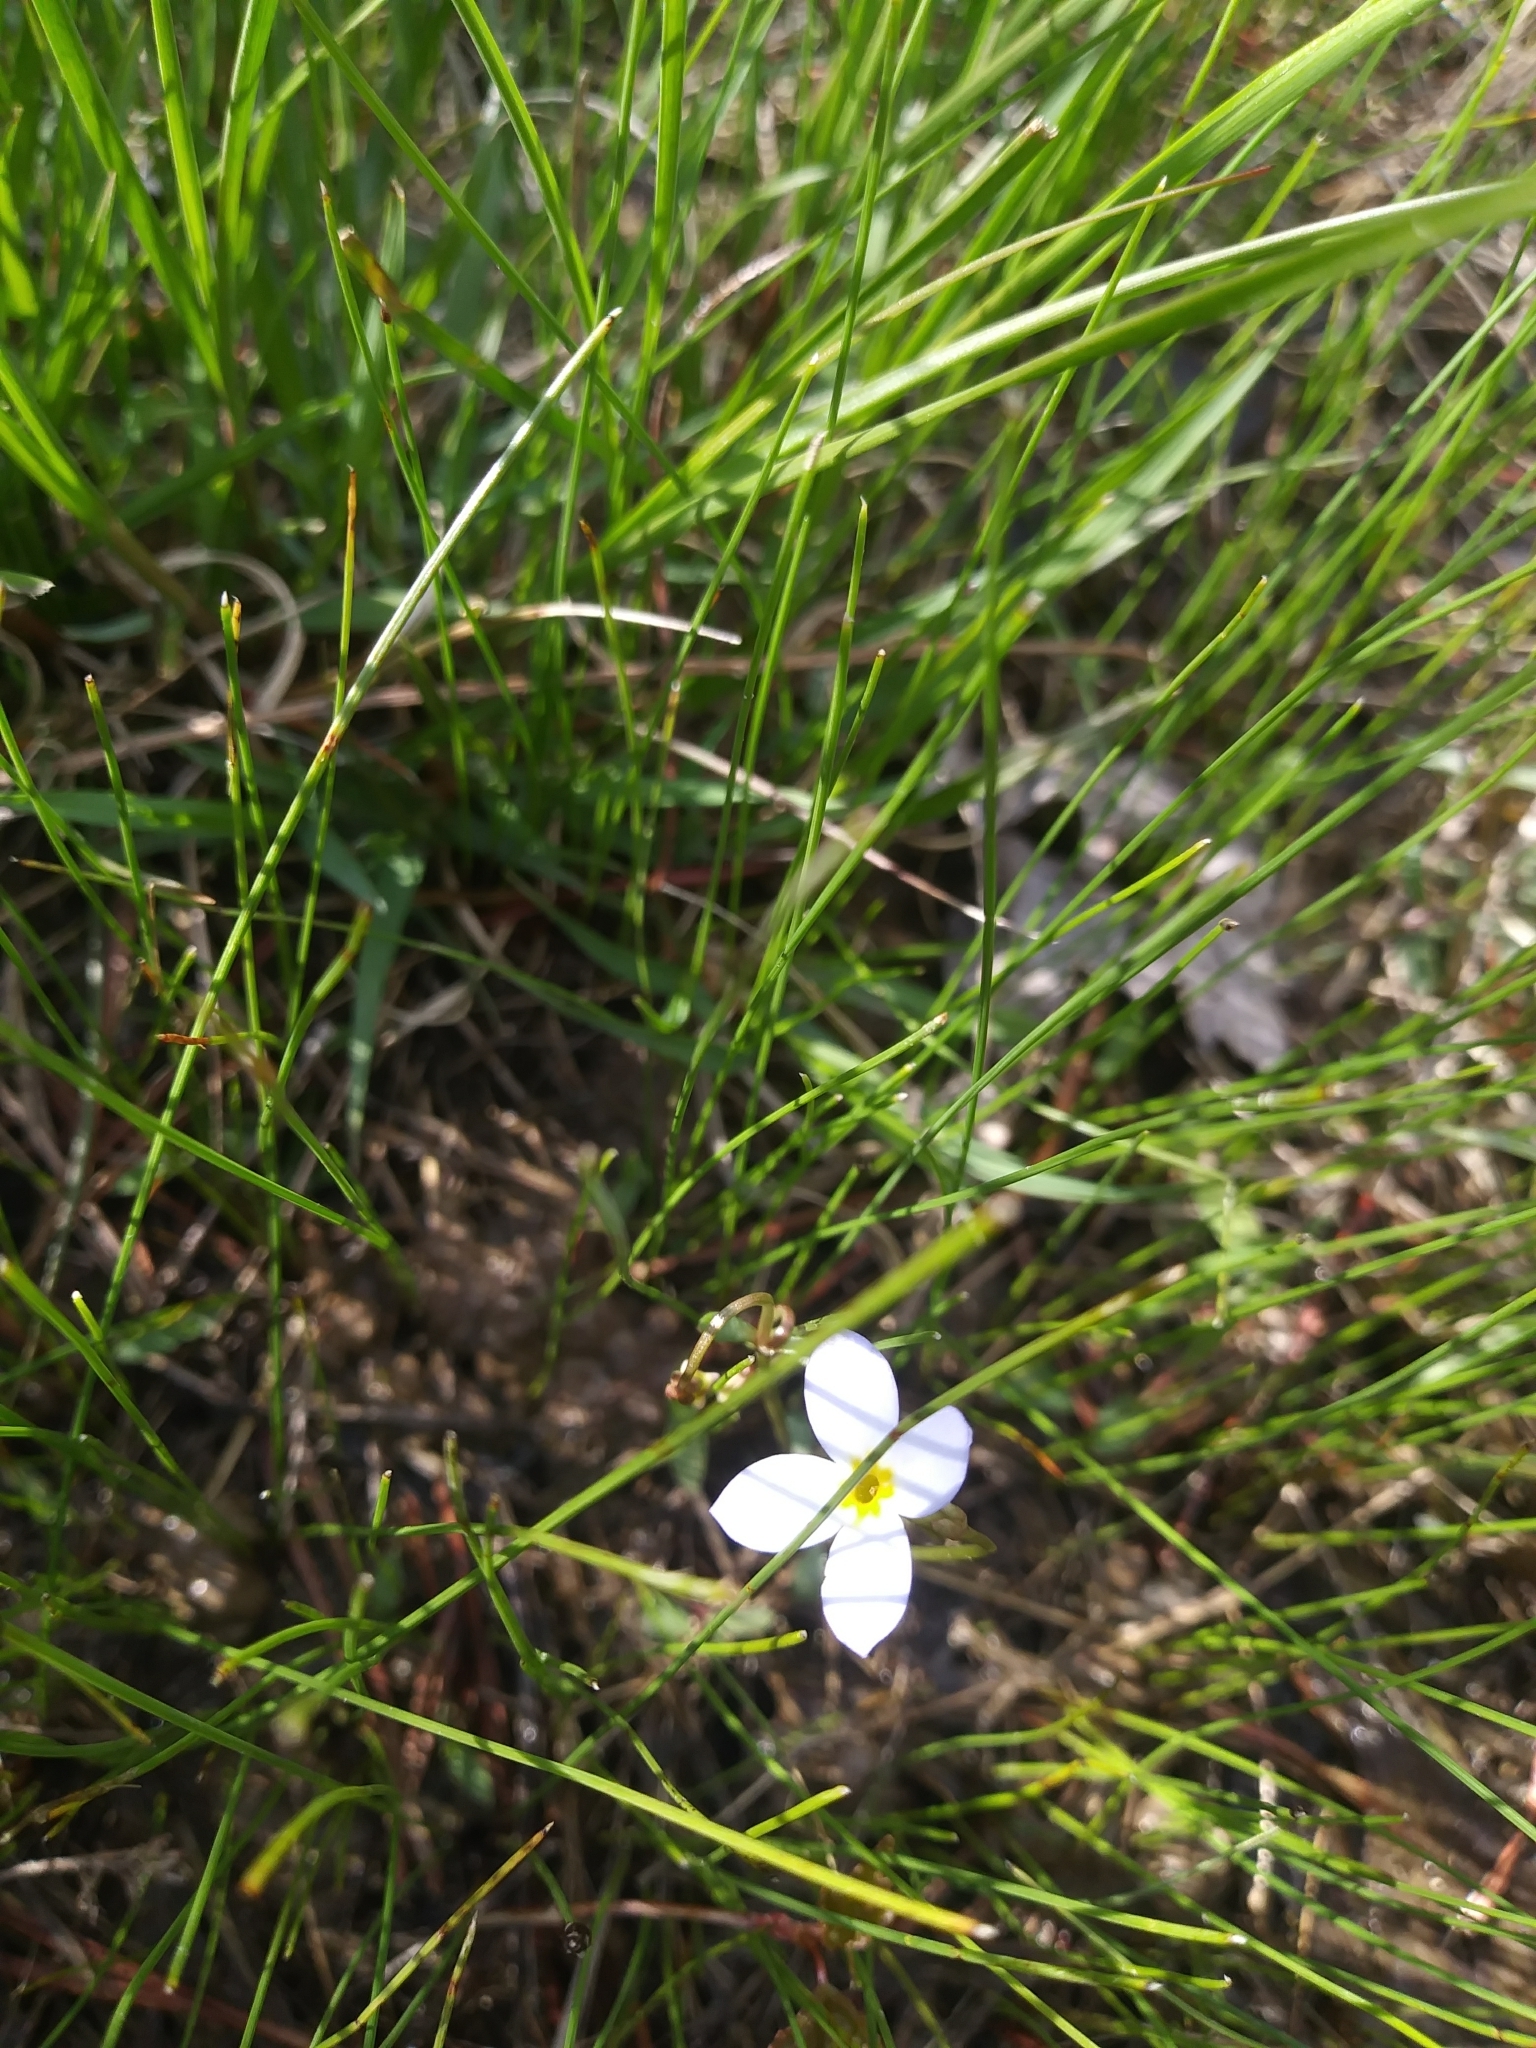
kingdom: Plantae
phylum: Tracheophyta
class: Magnoliopsida
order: Gentianales
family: Rubiaceae
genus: Houstonia
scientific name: Houstonia caerulea
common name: Bluets
